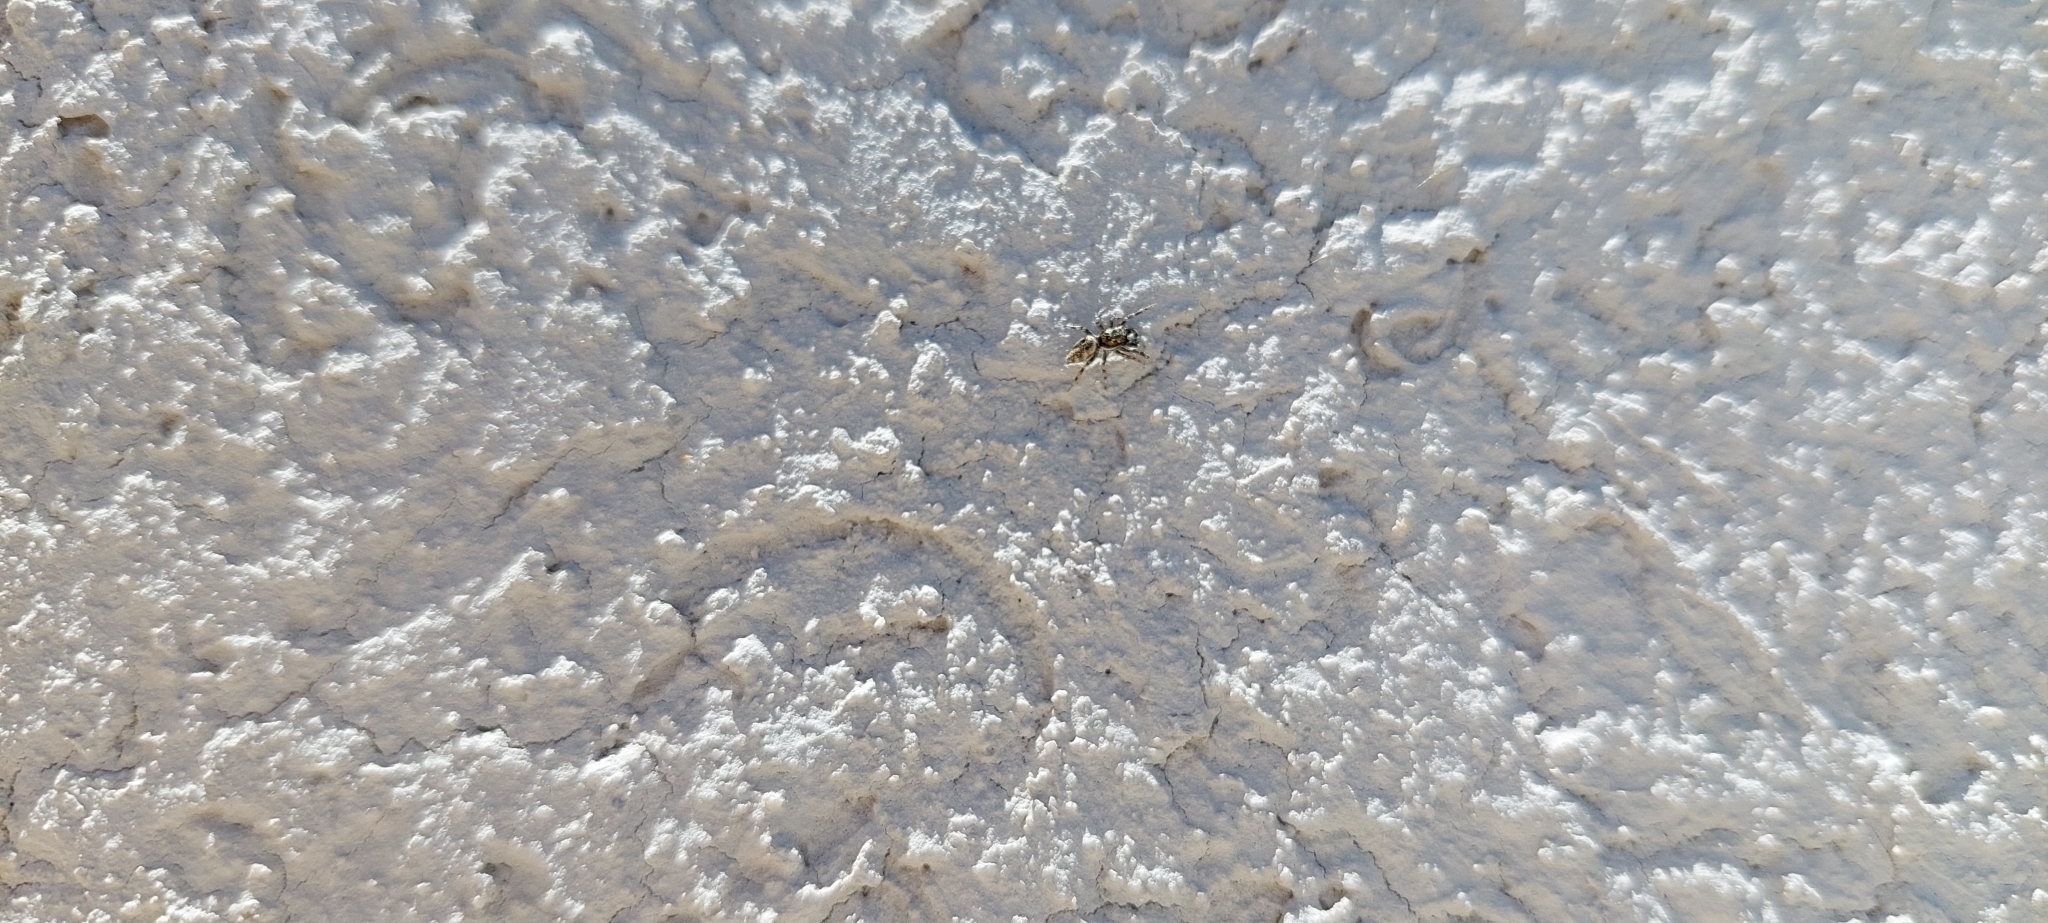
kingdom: Animalia
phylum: Arthropoda
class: Arachnida
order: Araneae
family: Salticidae
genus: Salticus
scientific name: Salticus mutabilis
